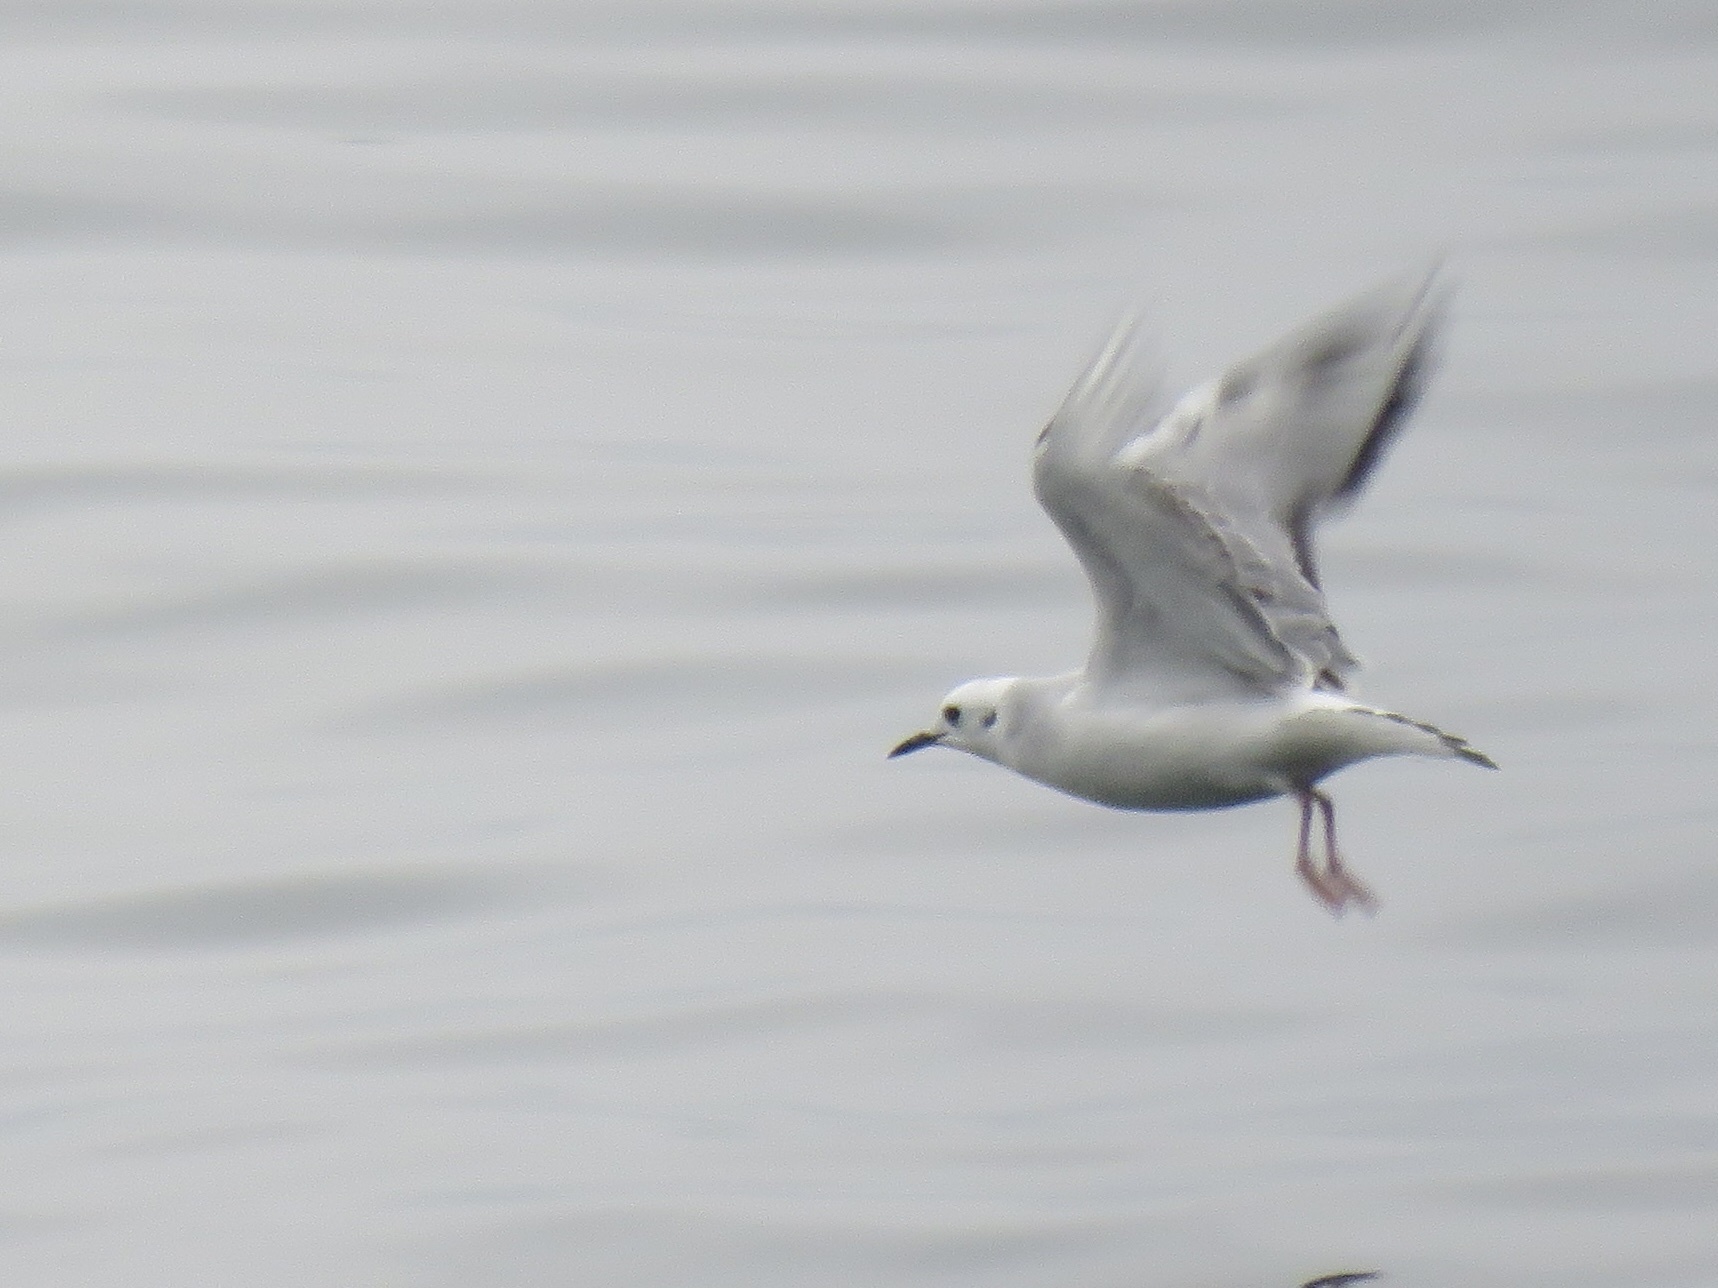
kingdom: Animalia
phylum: Chordata
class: Aves
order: Charadriiformes
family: Laridae
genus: Chroicocephalus
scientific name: Chroicocephalus philadelphia
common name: Bonaparte's gull
